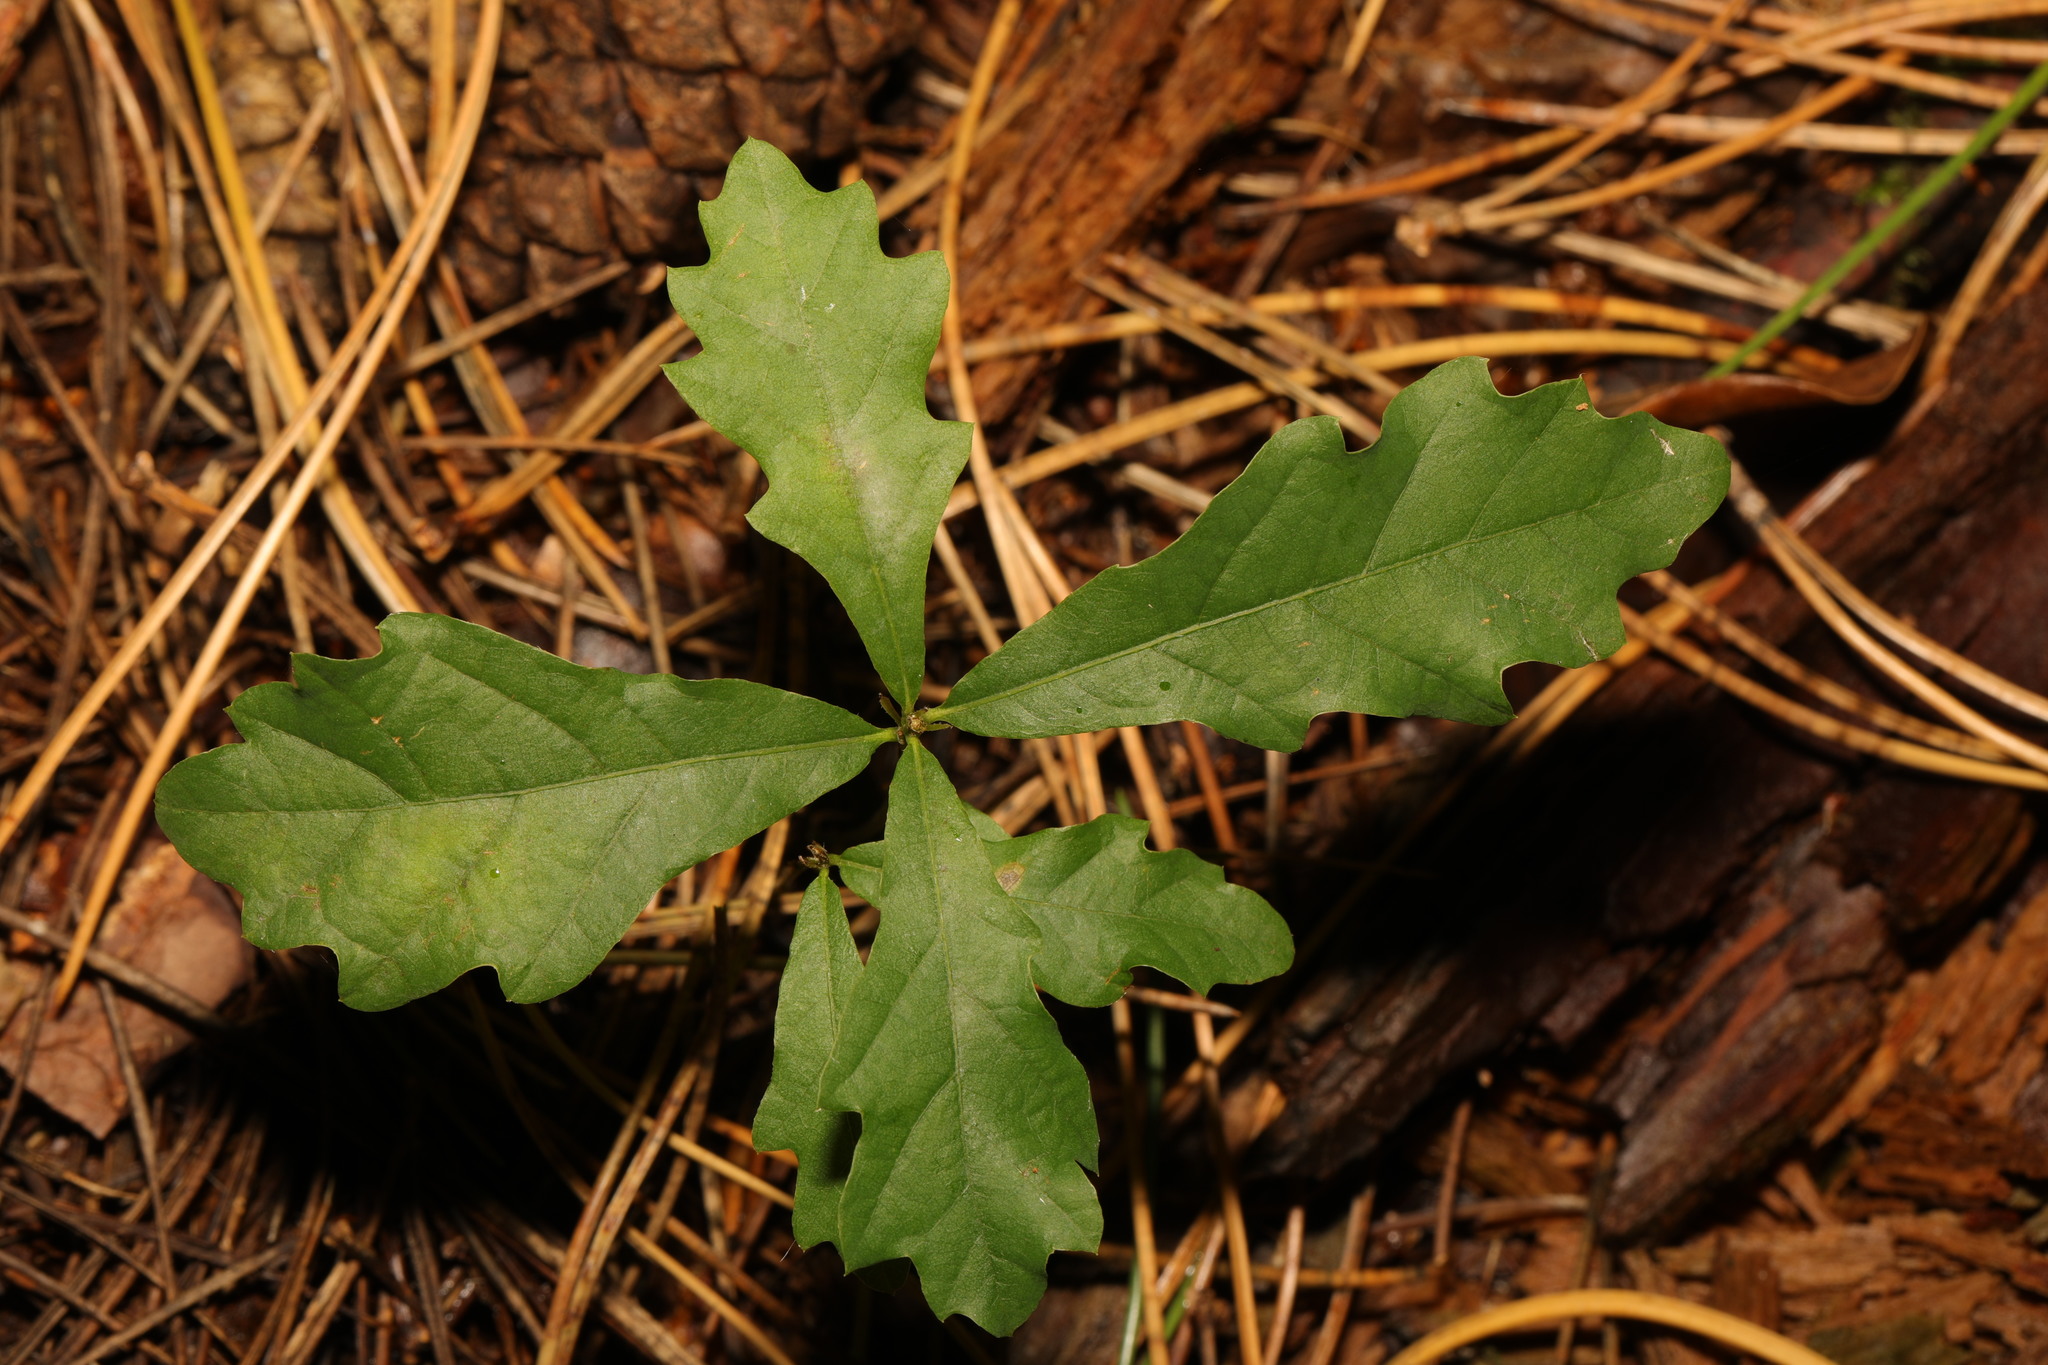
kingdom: Plantae
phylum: Tracheophyta
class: Magnoliopsida
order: Fagales
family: Fagaceae
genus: Quercus
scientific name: Quercus robur
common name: Pedunculate oak
